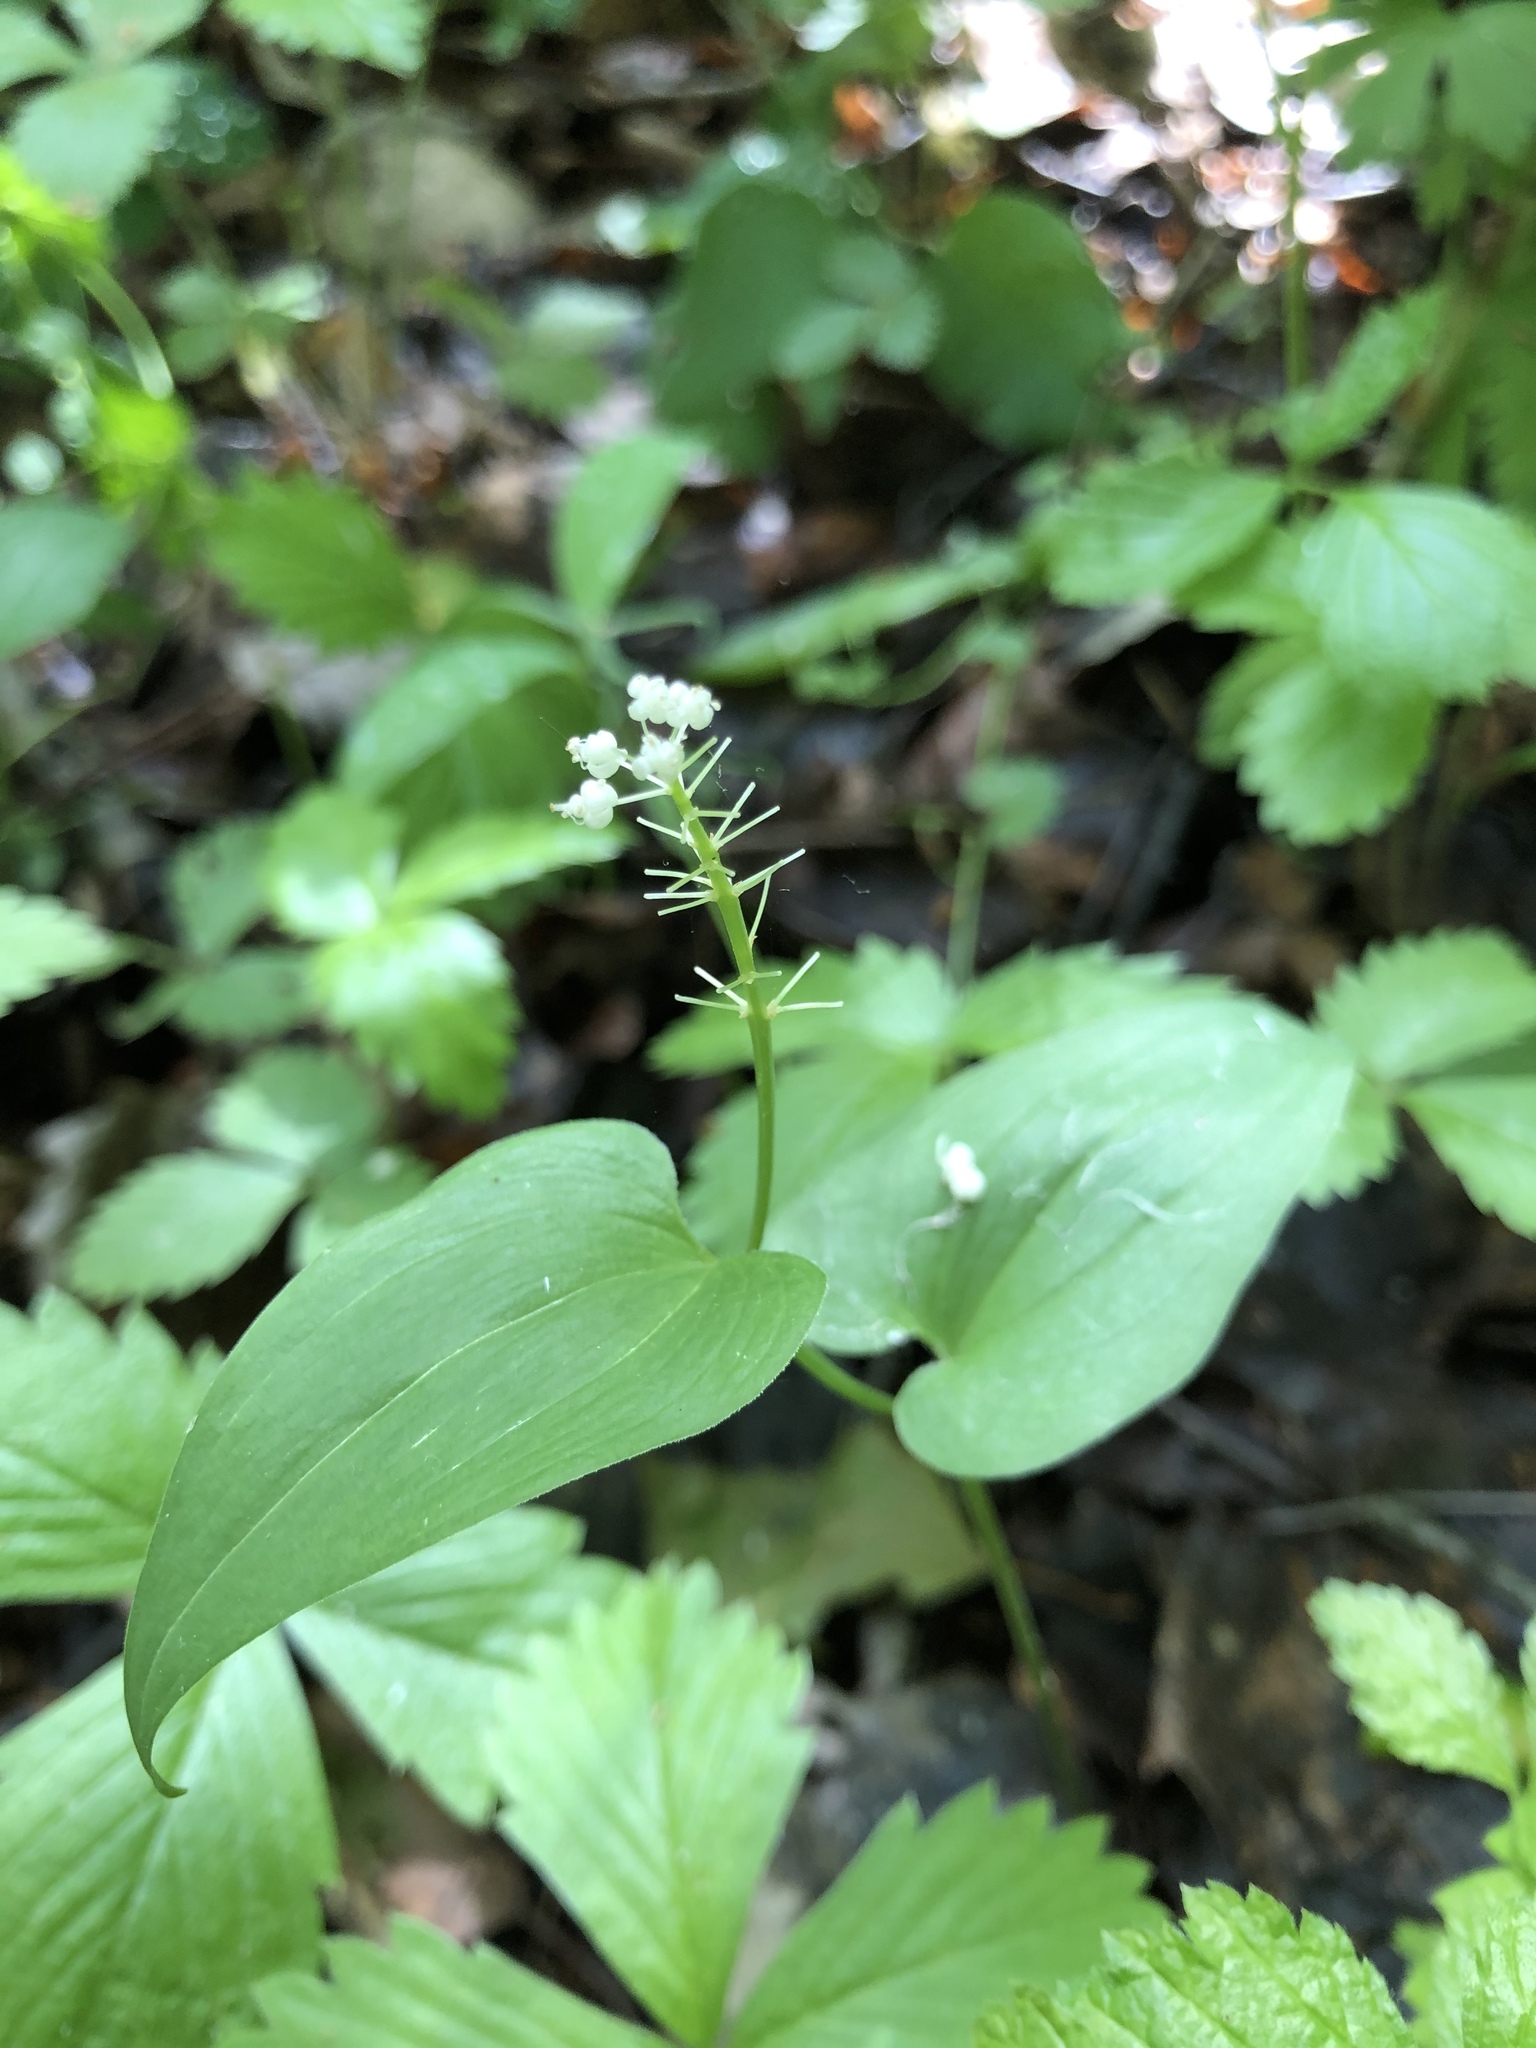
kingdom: Plantae
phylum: Tracheophyta
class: Liliopsida
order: Asparagales
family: Asparagaceae
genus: Maianthemum
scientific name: Maianthemum bifolium
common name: May lily
